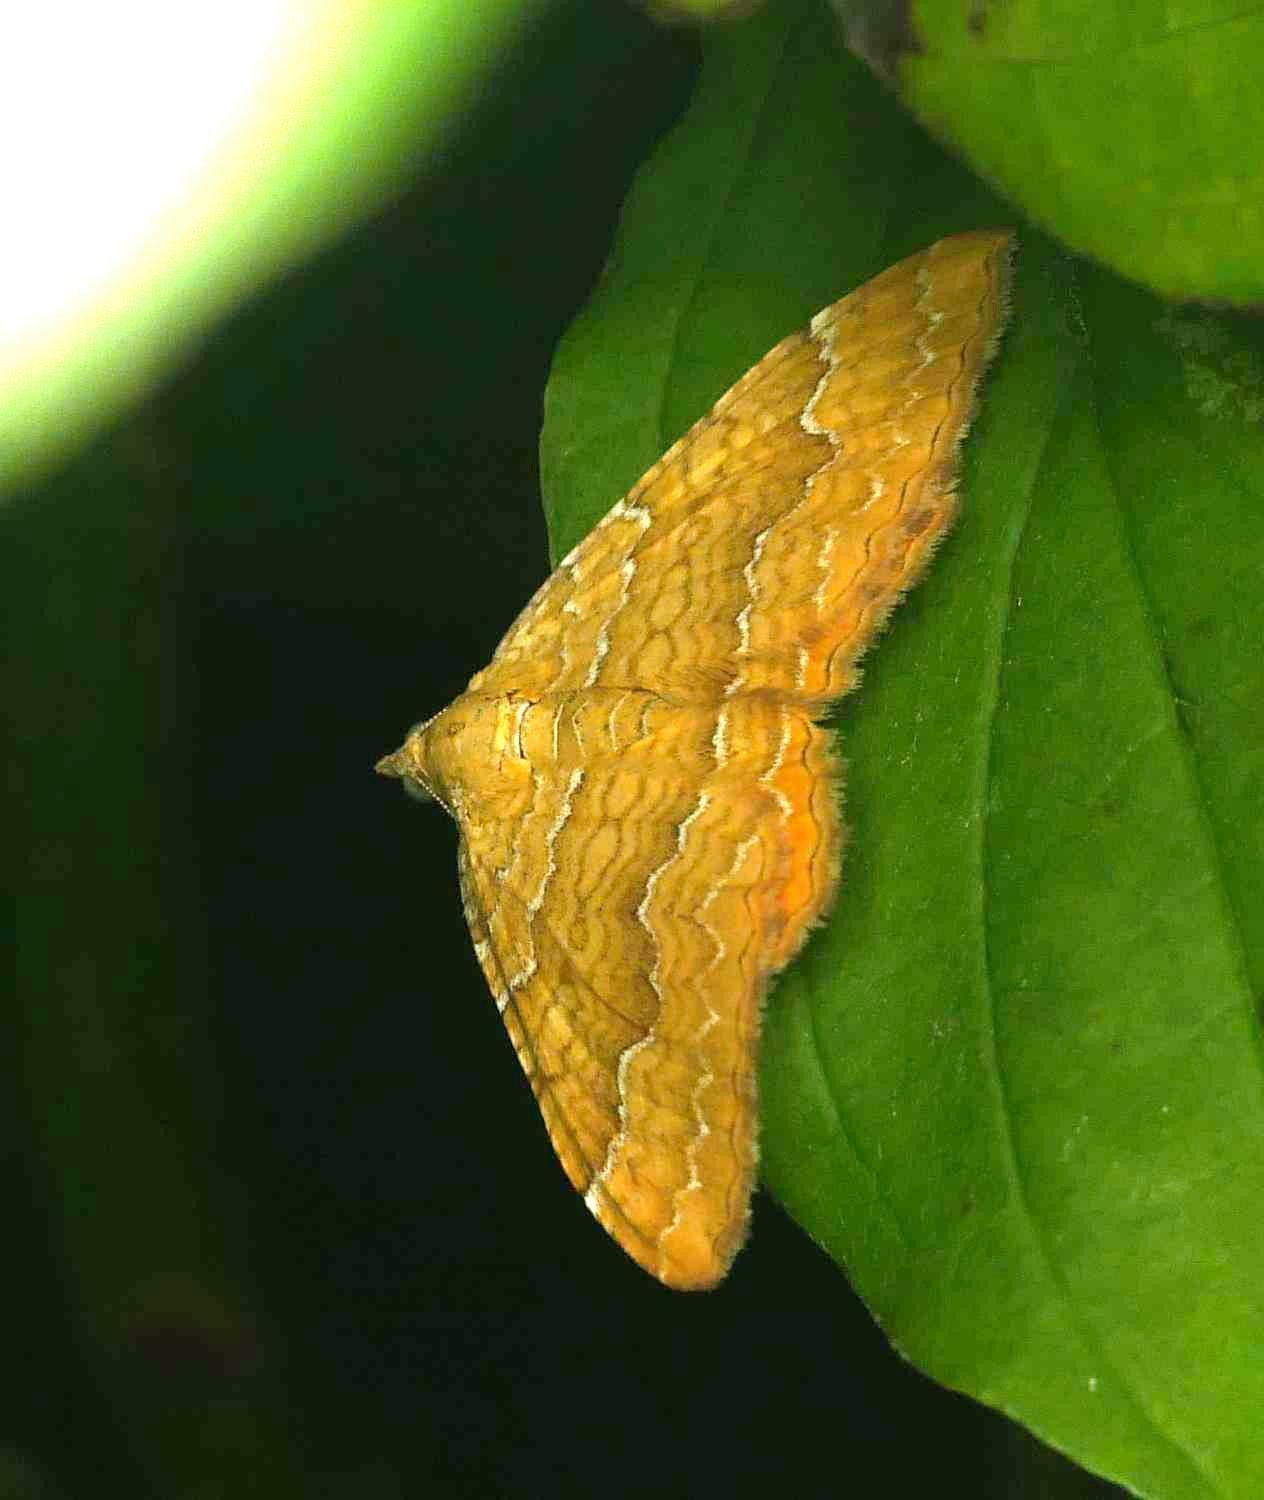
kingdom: Animalia
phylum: Arthropoda
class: Insecta
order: Lepidoptera
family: Geometridae
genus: Camptogramma
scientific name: Camptogramma bilineata
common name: Yellow shell
